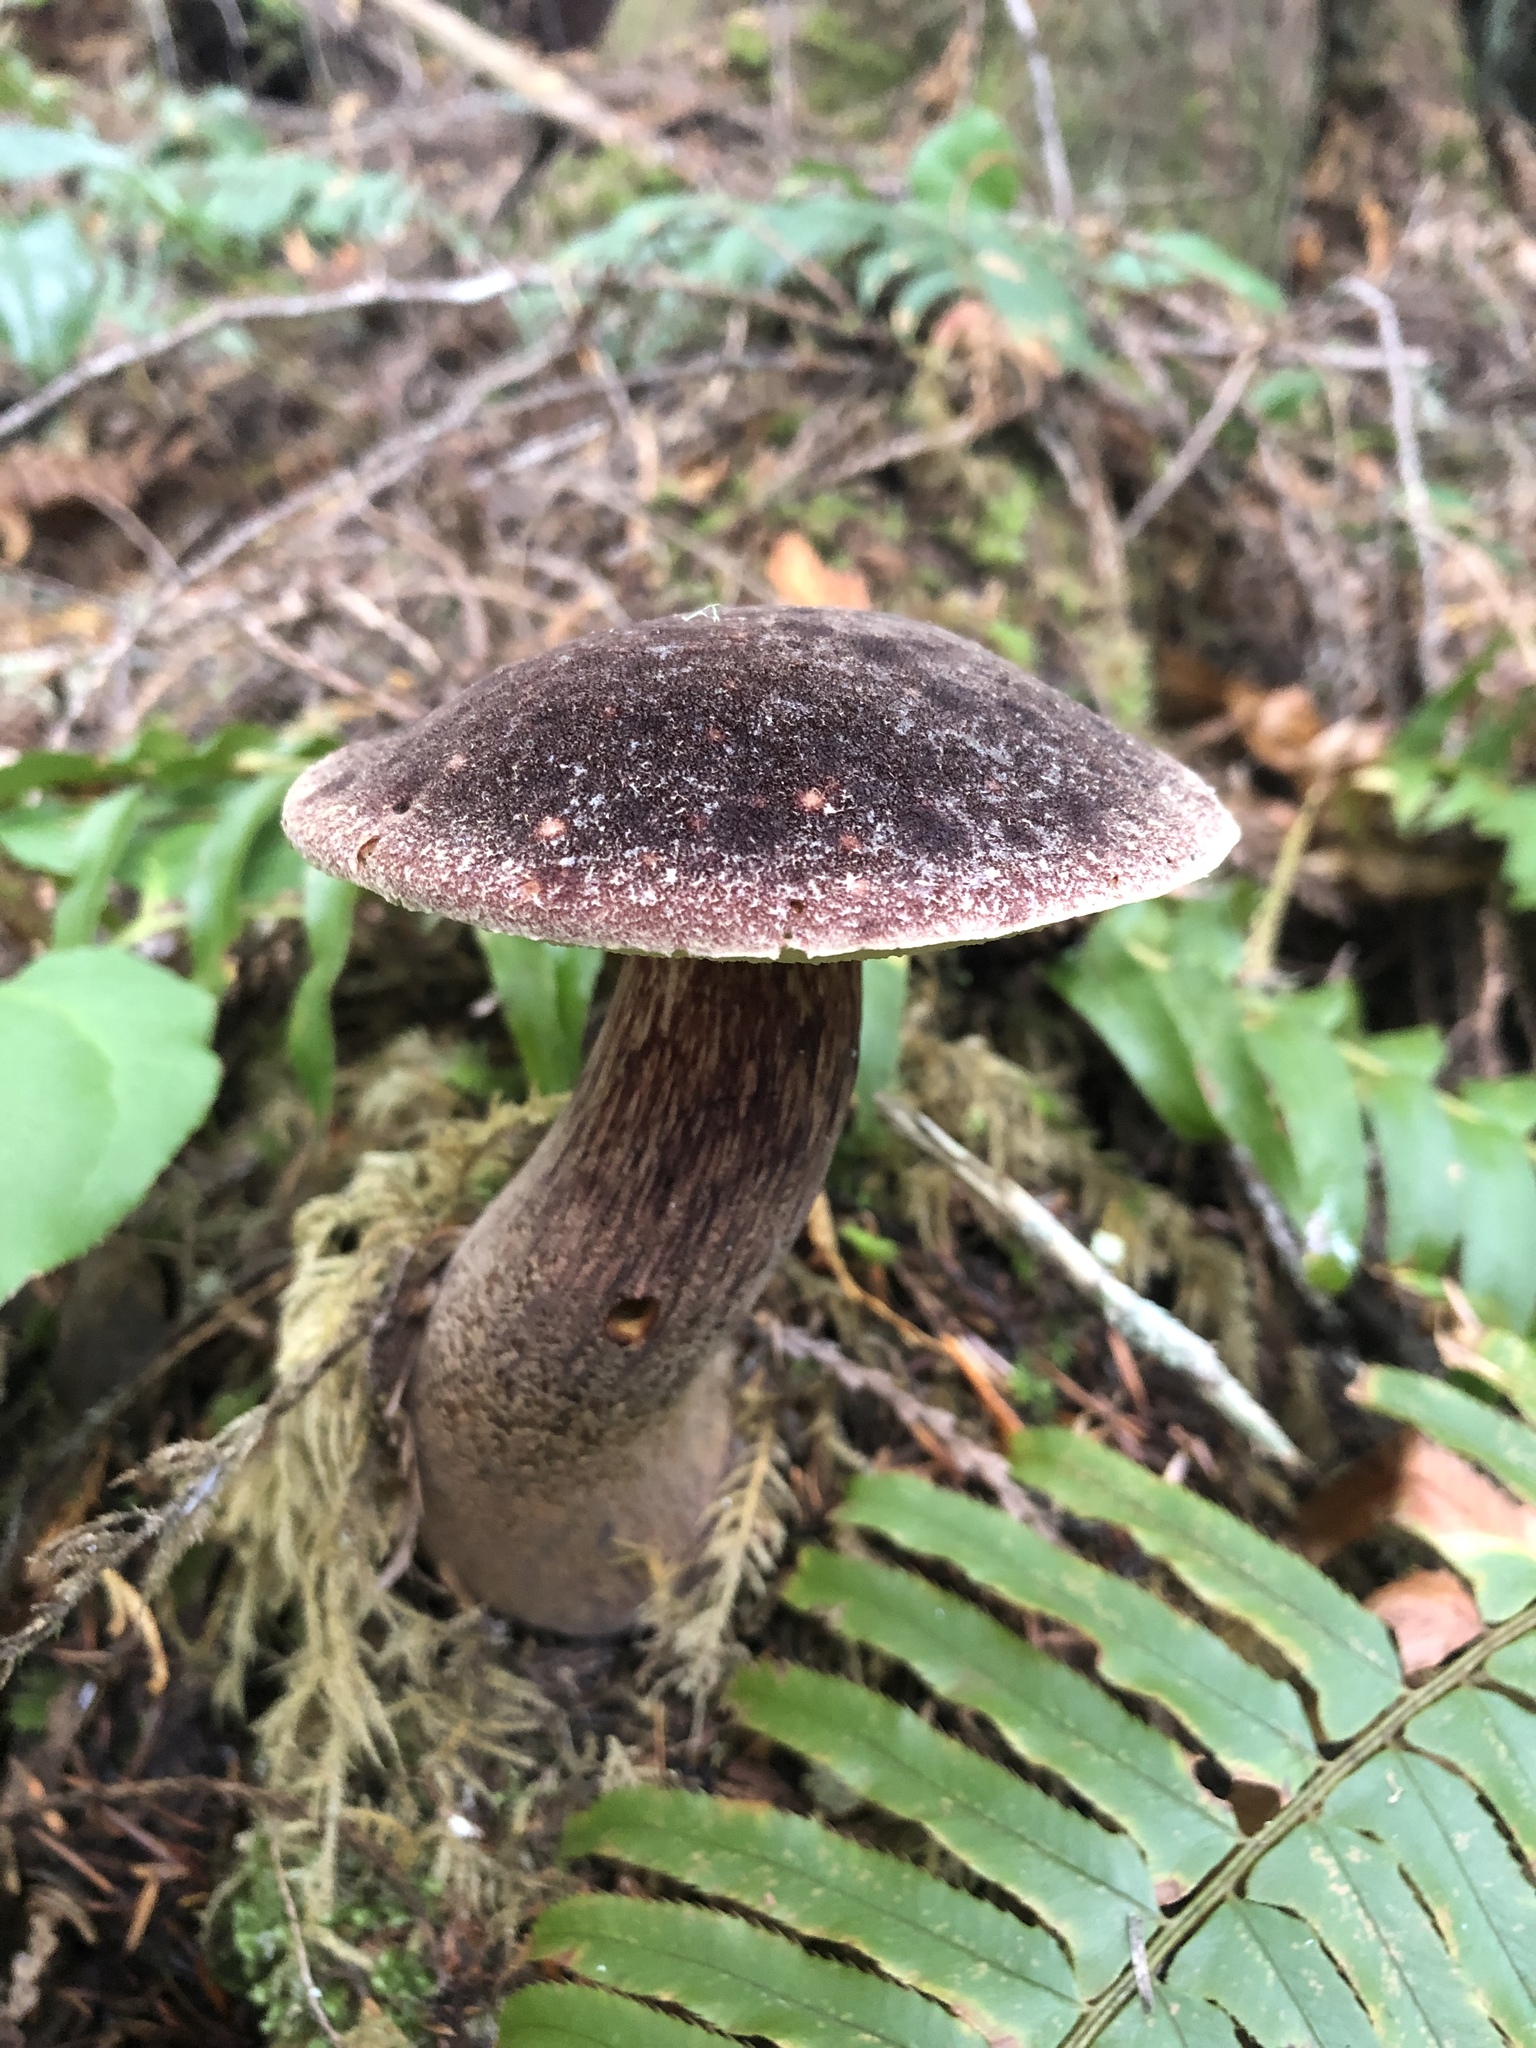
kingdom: Fungi
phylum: Basidiomycota
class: Agaricomycetes
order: Boletales
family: Boletaceae
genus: Aureoboletus
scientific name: Aureoboletus mirabilis
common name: Admirable bolete
